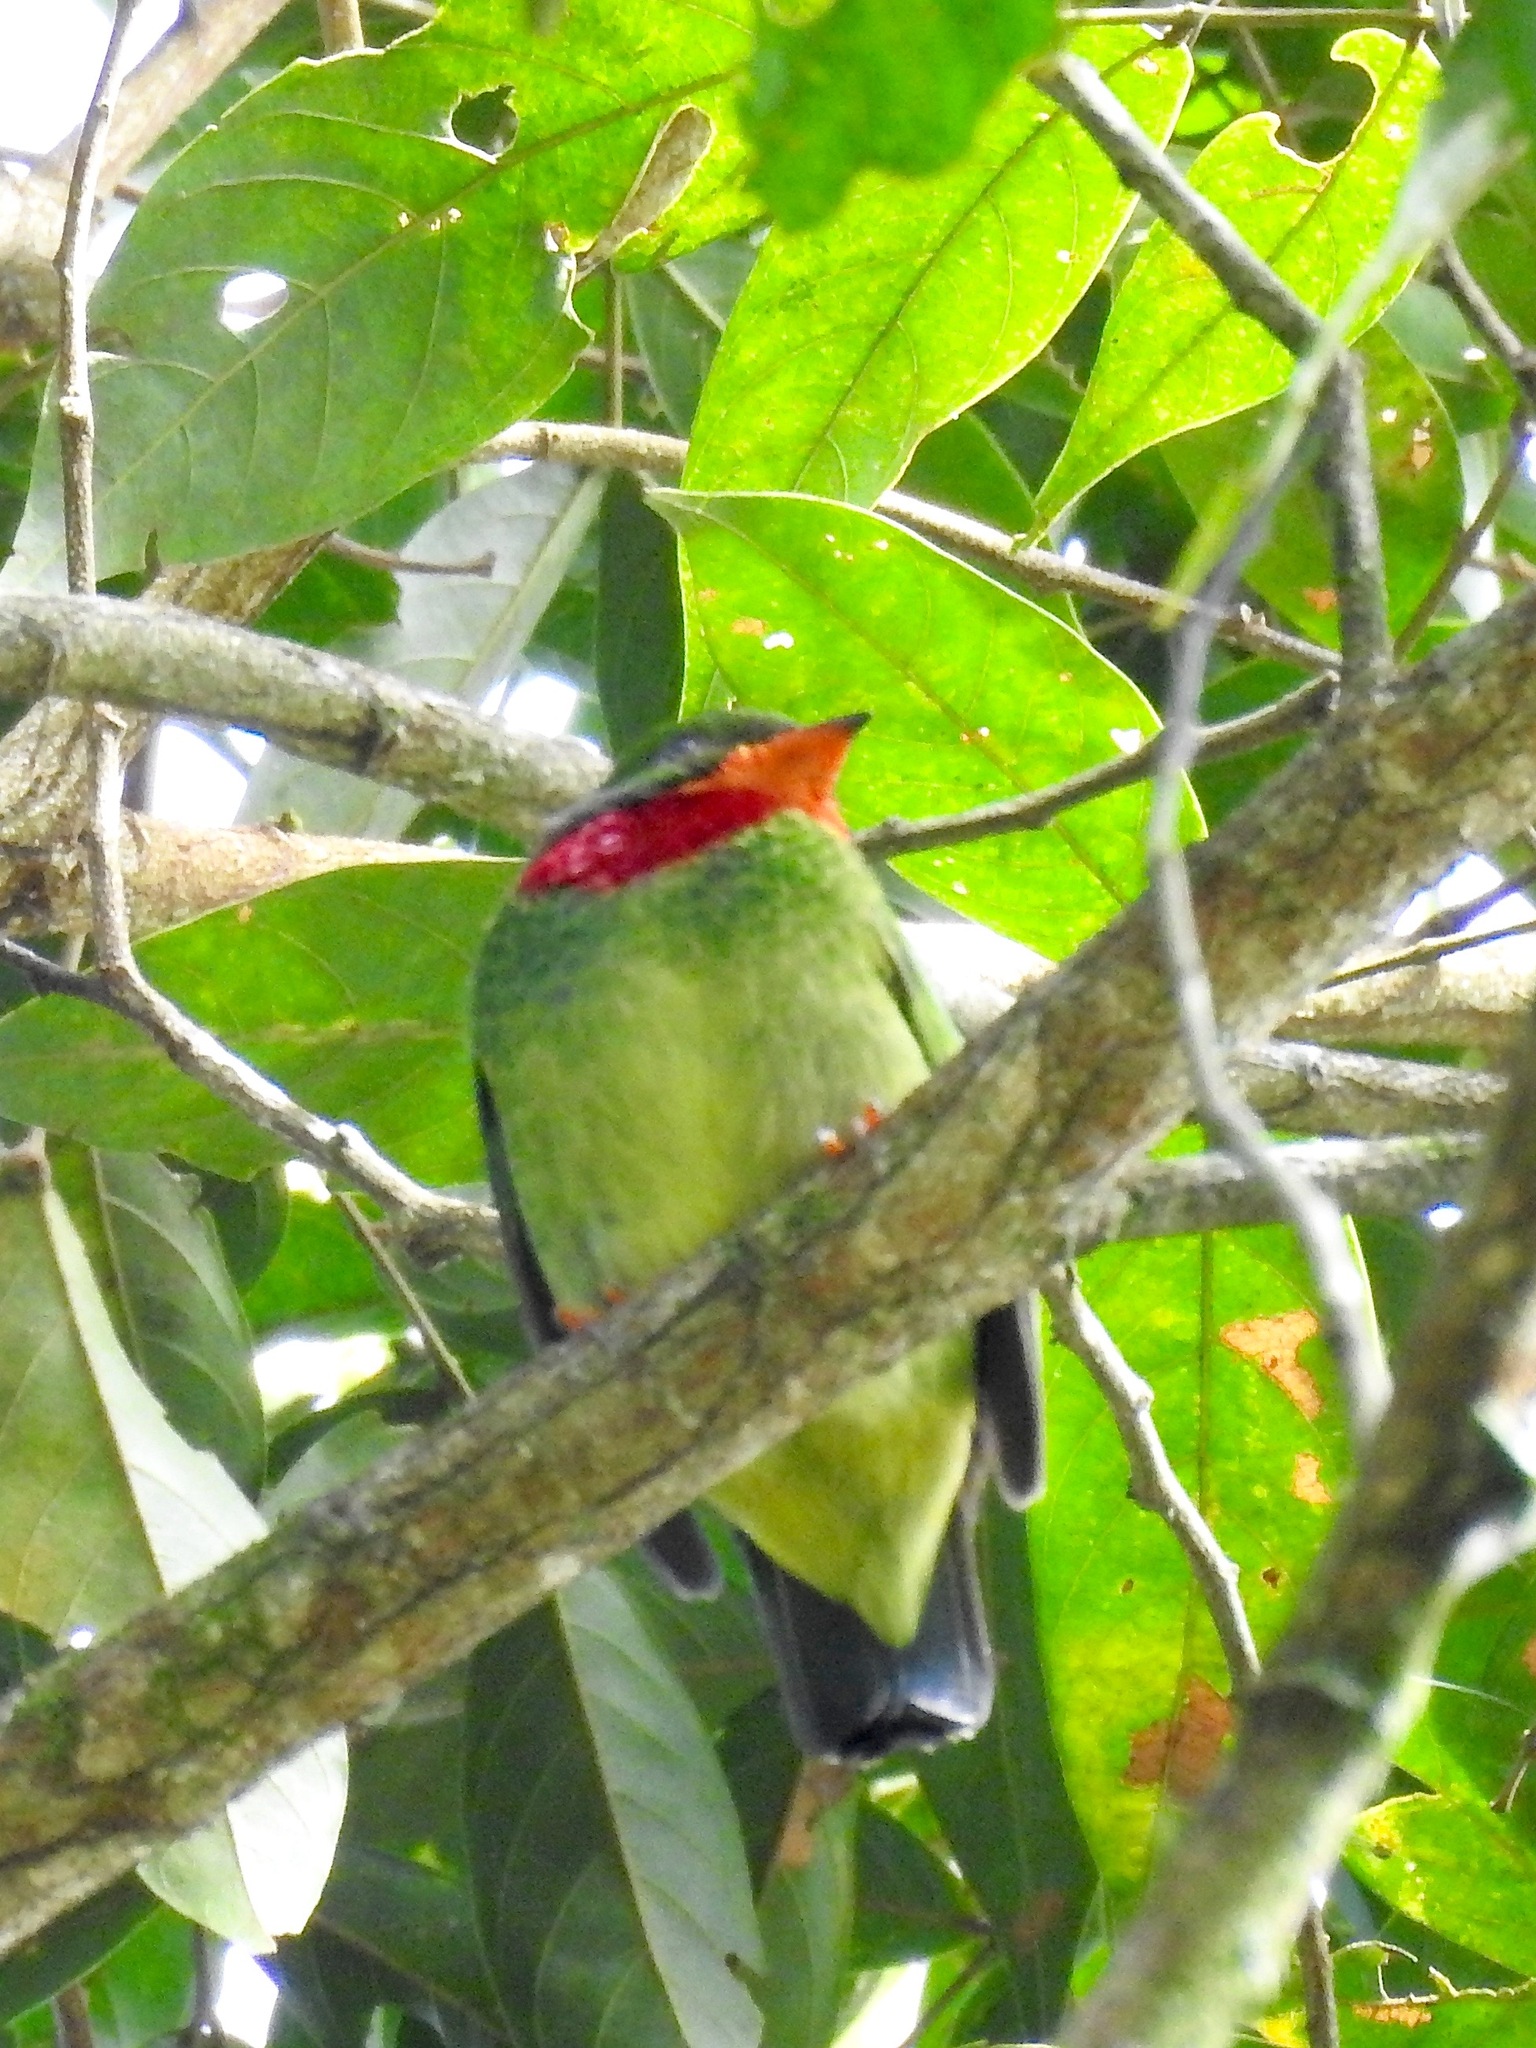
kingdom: Animalia
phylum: Chordata
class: Aves
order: Passeriformes
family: Cotingidae
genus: Pipreola
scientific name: Pipreola chlorolepidota
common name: Fiery-throated fruiteater
